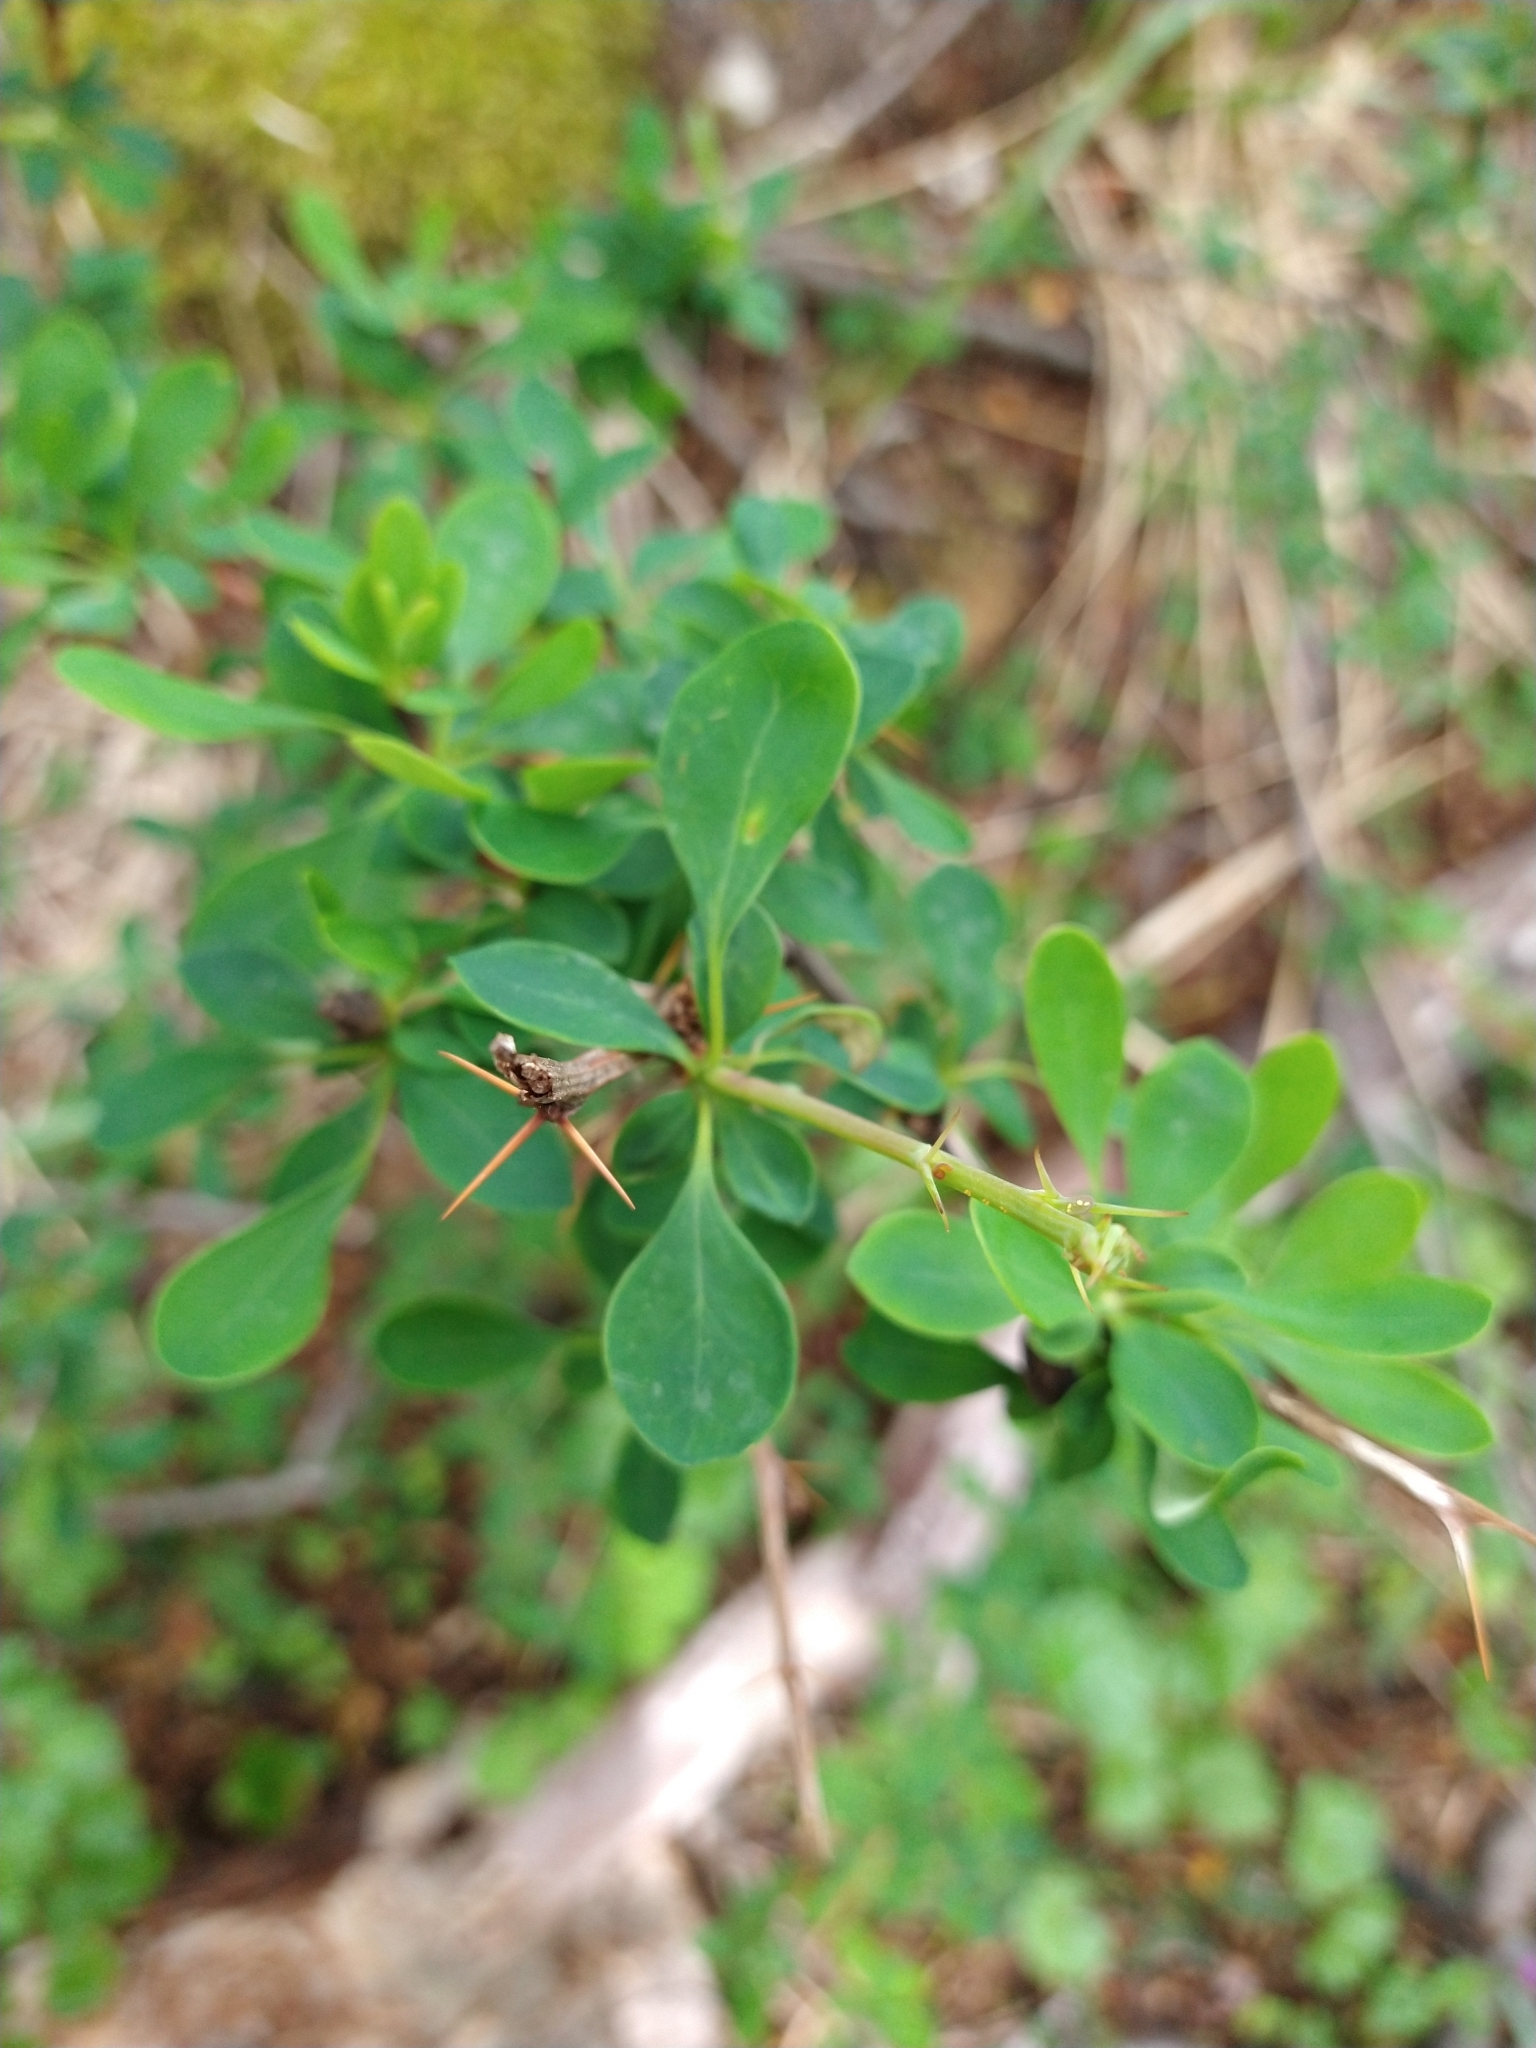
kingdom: Plantae
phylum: Tracheophyta
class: Magnoliopsida
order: Ranunculales
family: Berberidaceae
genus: Berberis
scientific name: Berberis microphylla
